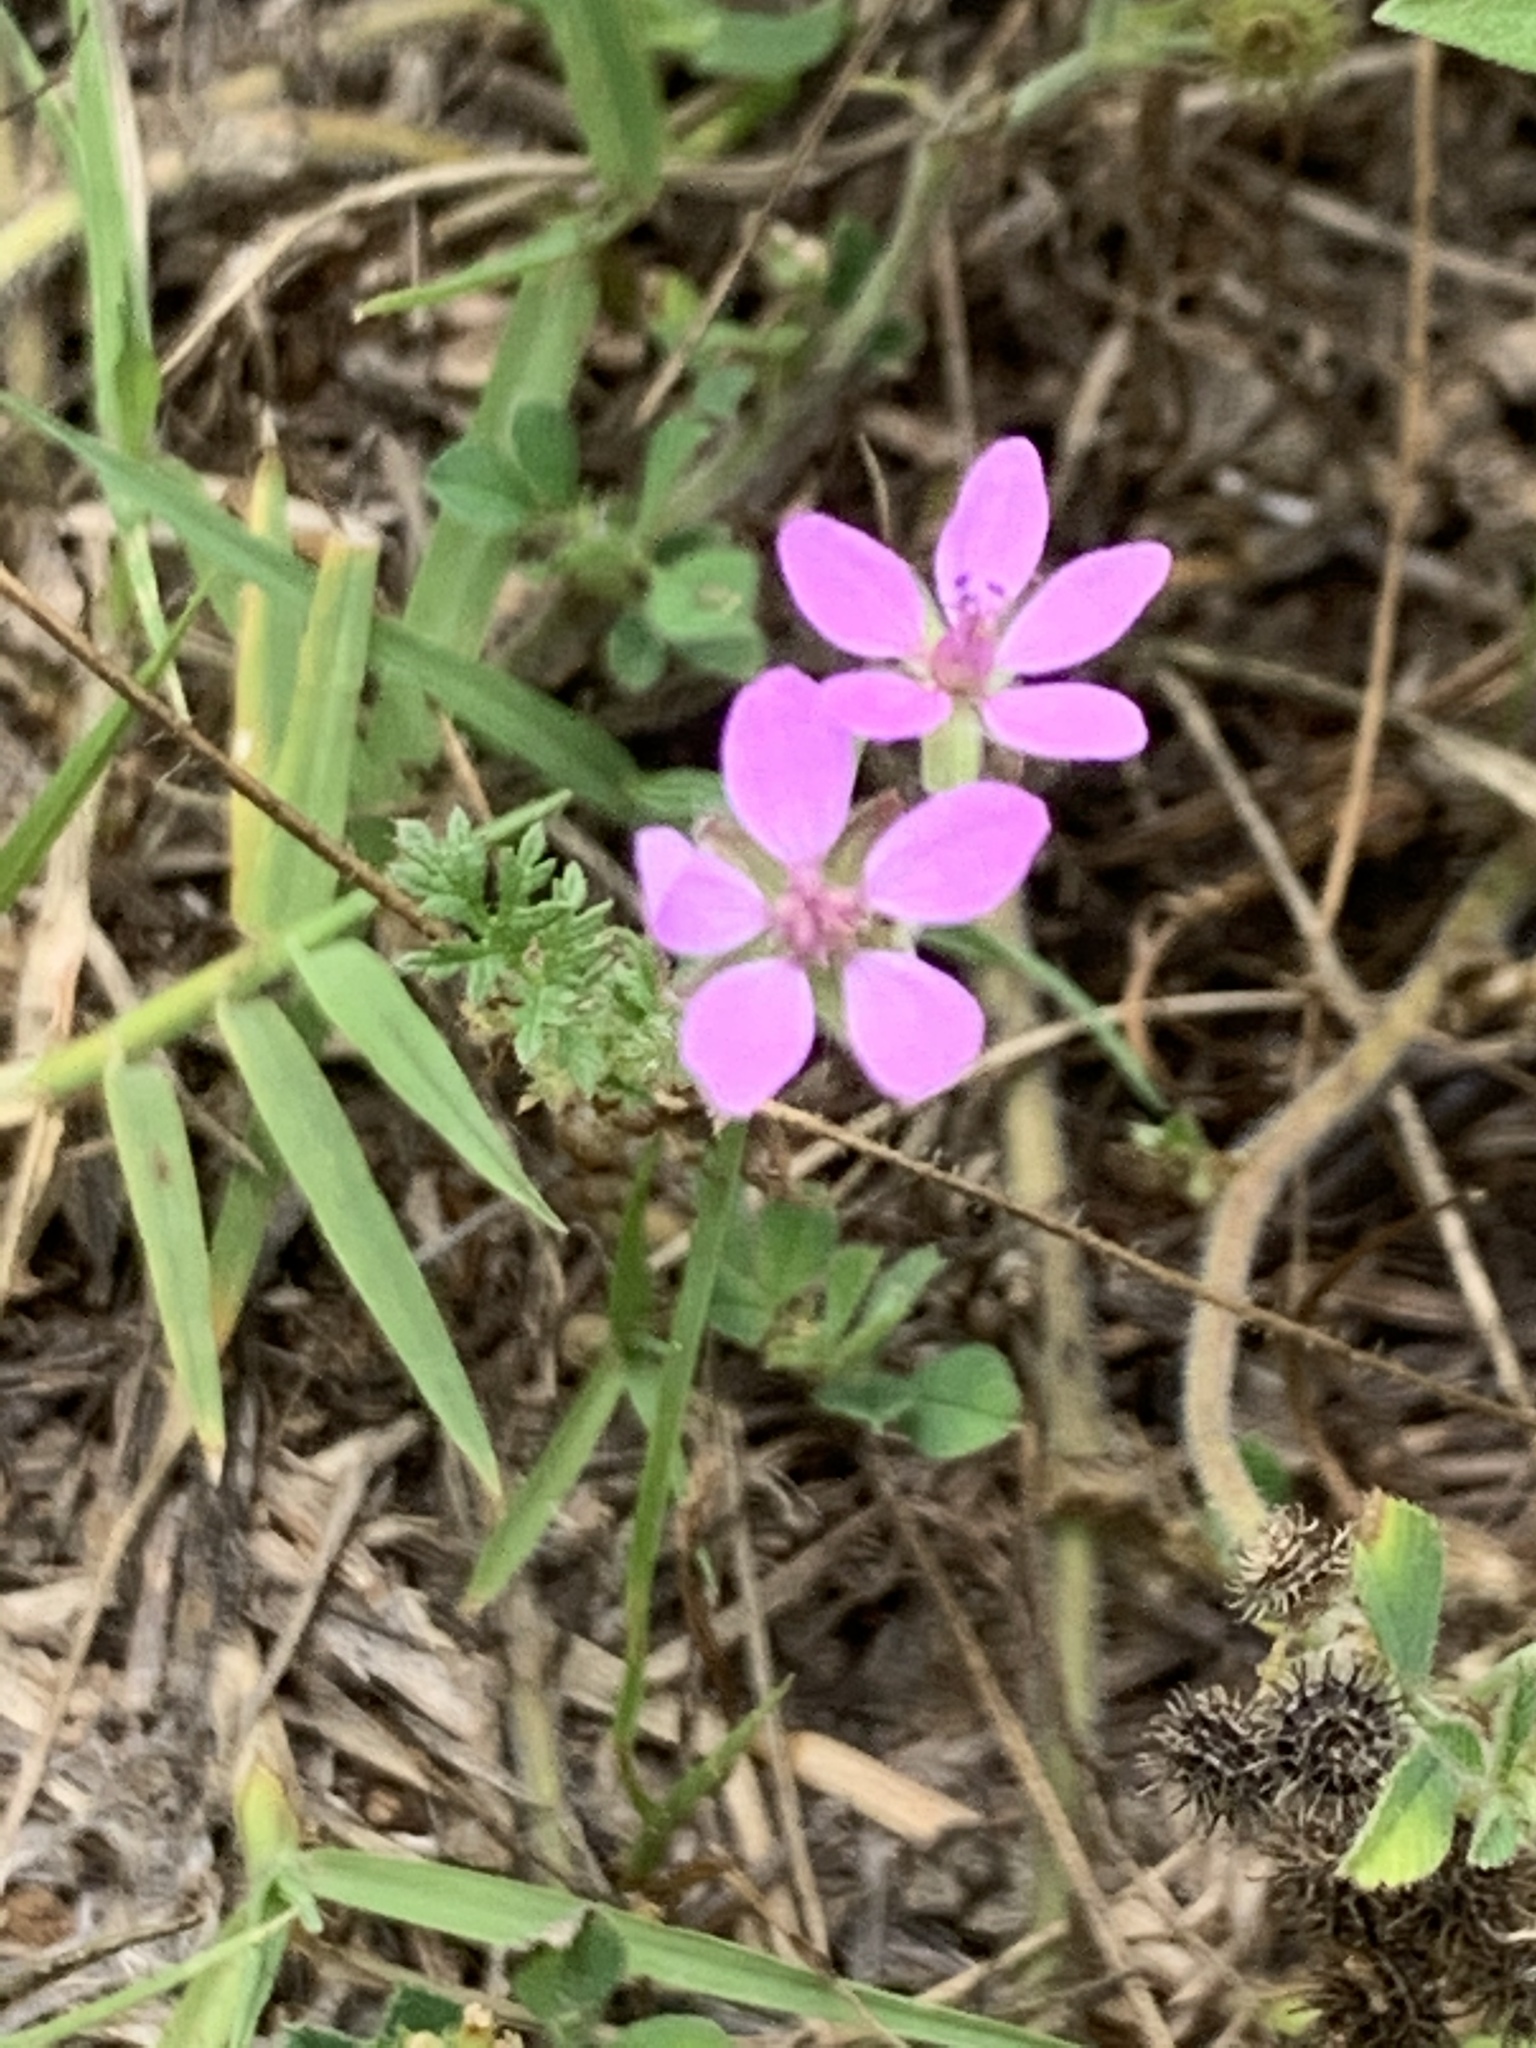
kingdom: Plantae
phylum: Tracheophyta
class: Magnoliopsida
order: Geraniales
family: Geraniaceae
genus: Erodium
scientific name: Erodium cicutarium
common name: Common stork's-bill
